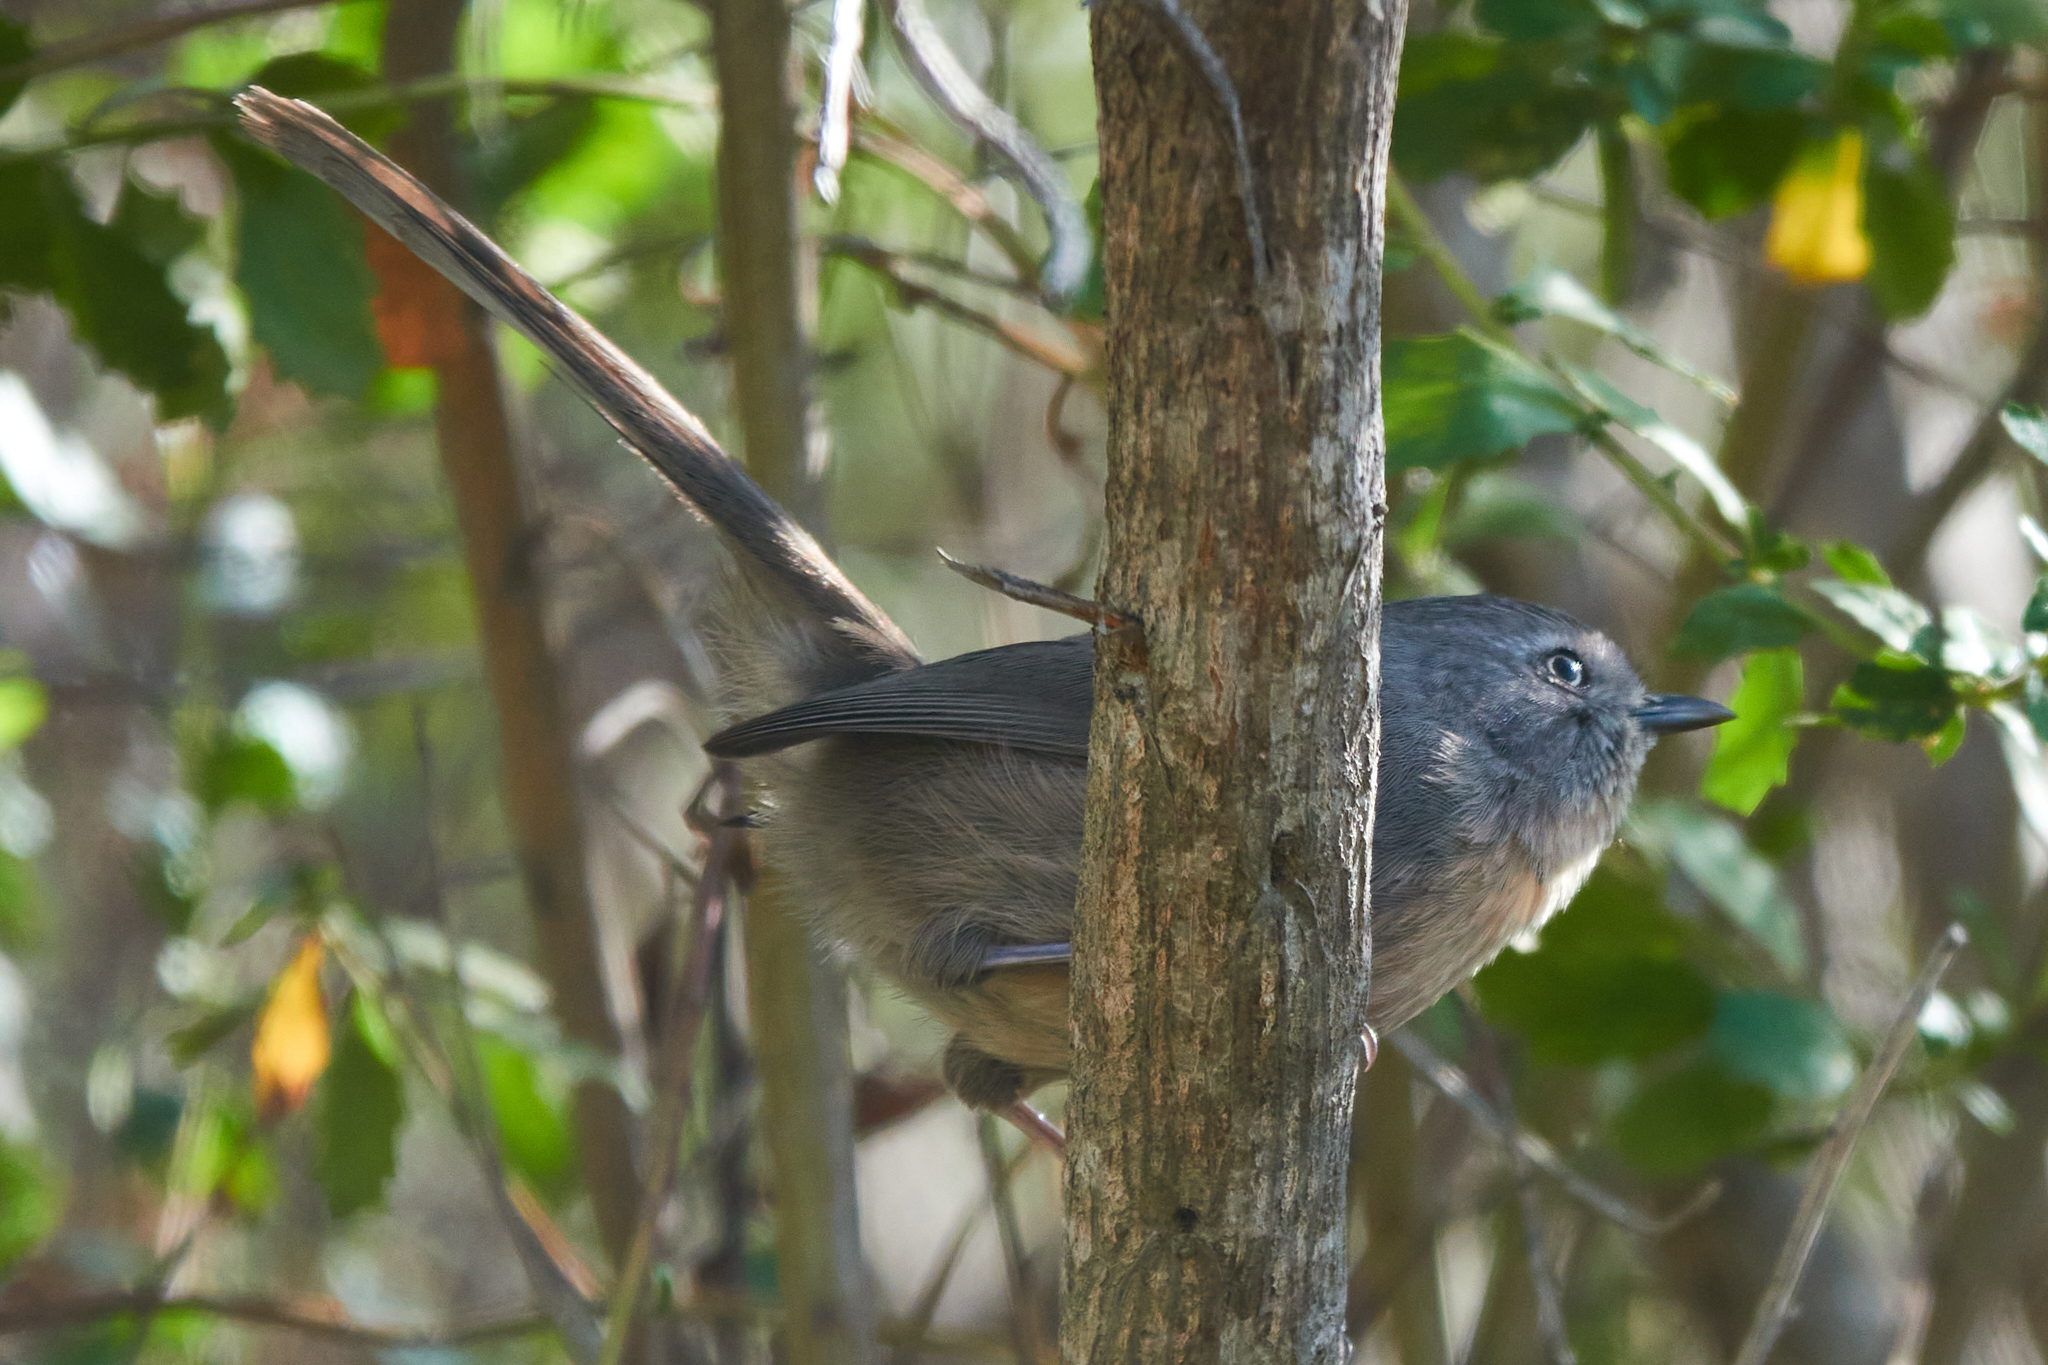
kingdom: Animalia
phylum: Chordata
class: Aves
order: Passeriformes
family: Sylviidae
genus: Chamaea
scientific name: Chamaea fasciata
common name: Wrentit
